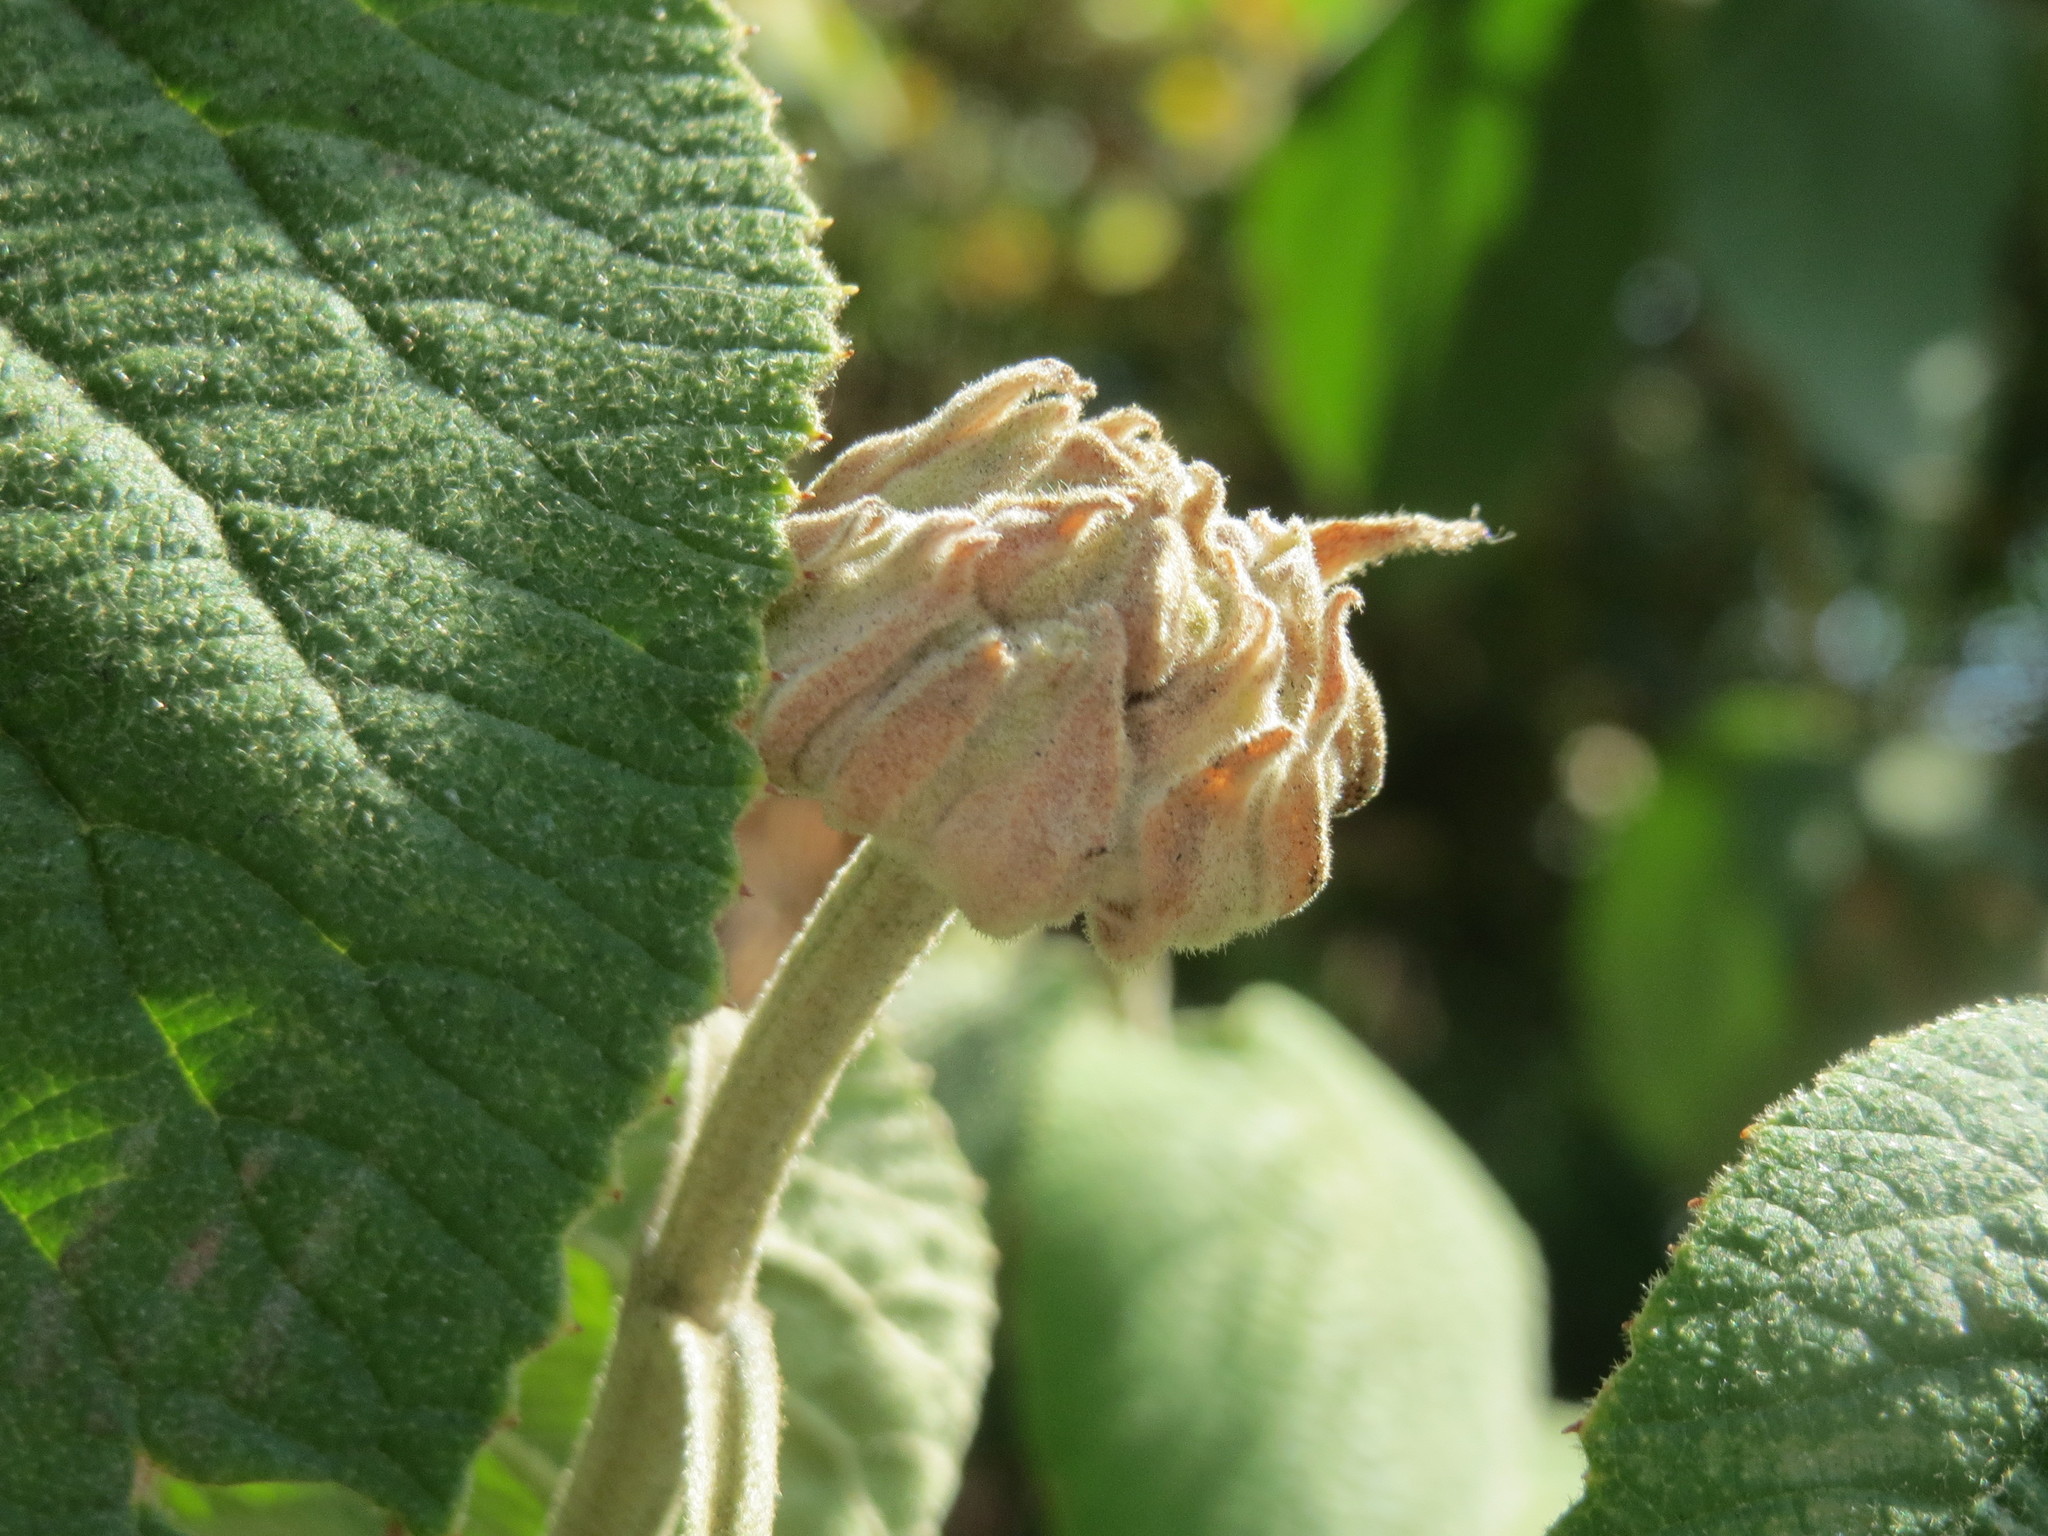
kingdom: Plantae
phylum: Tracheophyta
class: Magnoliopsida
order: Dipsacales
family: Viburnaceae
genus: Viburnum
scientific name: Viburnum lantana
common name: Wayfaring tree
